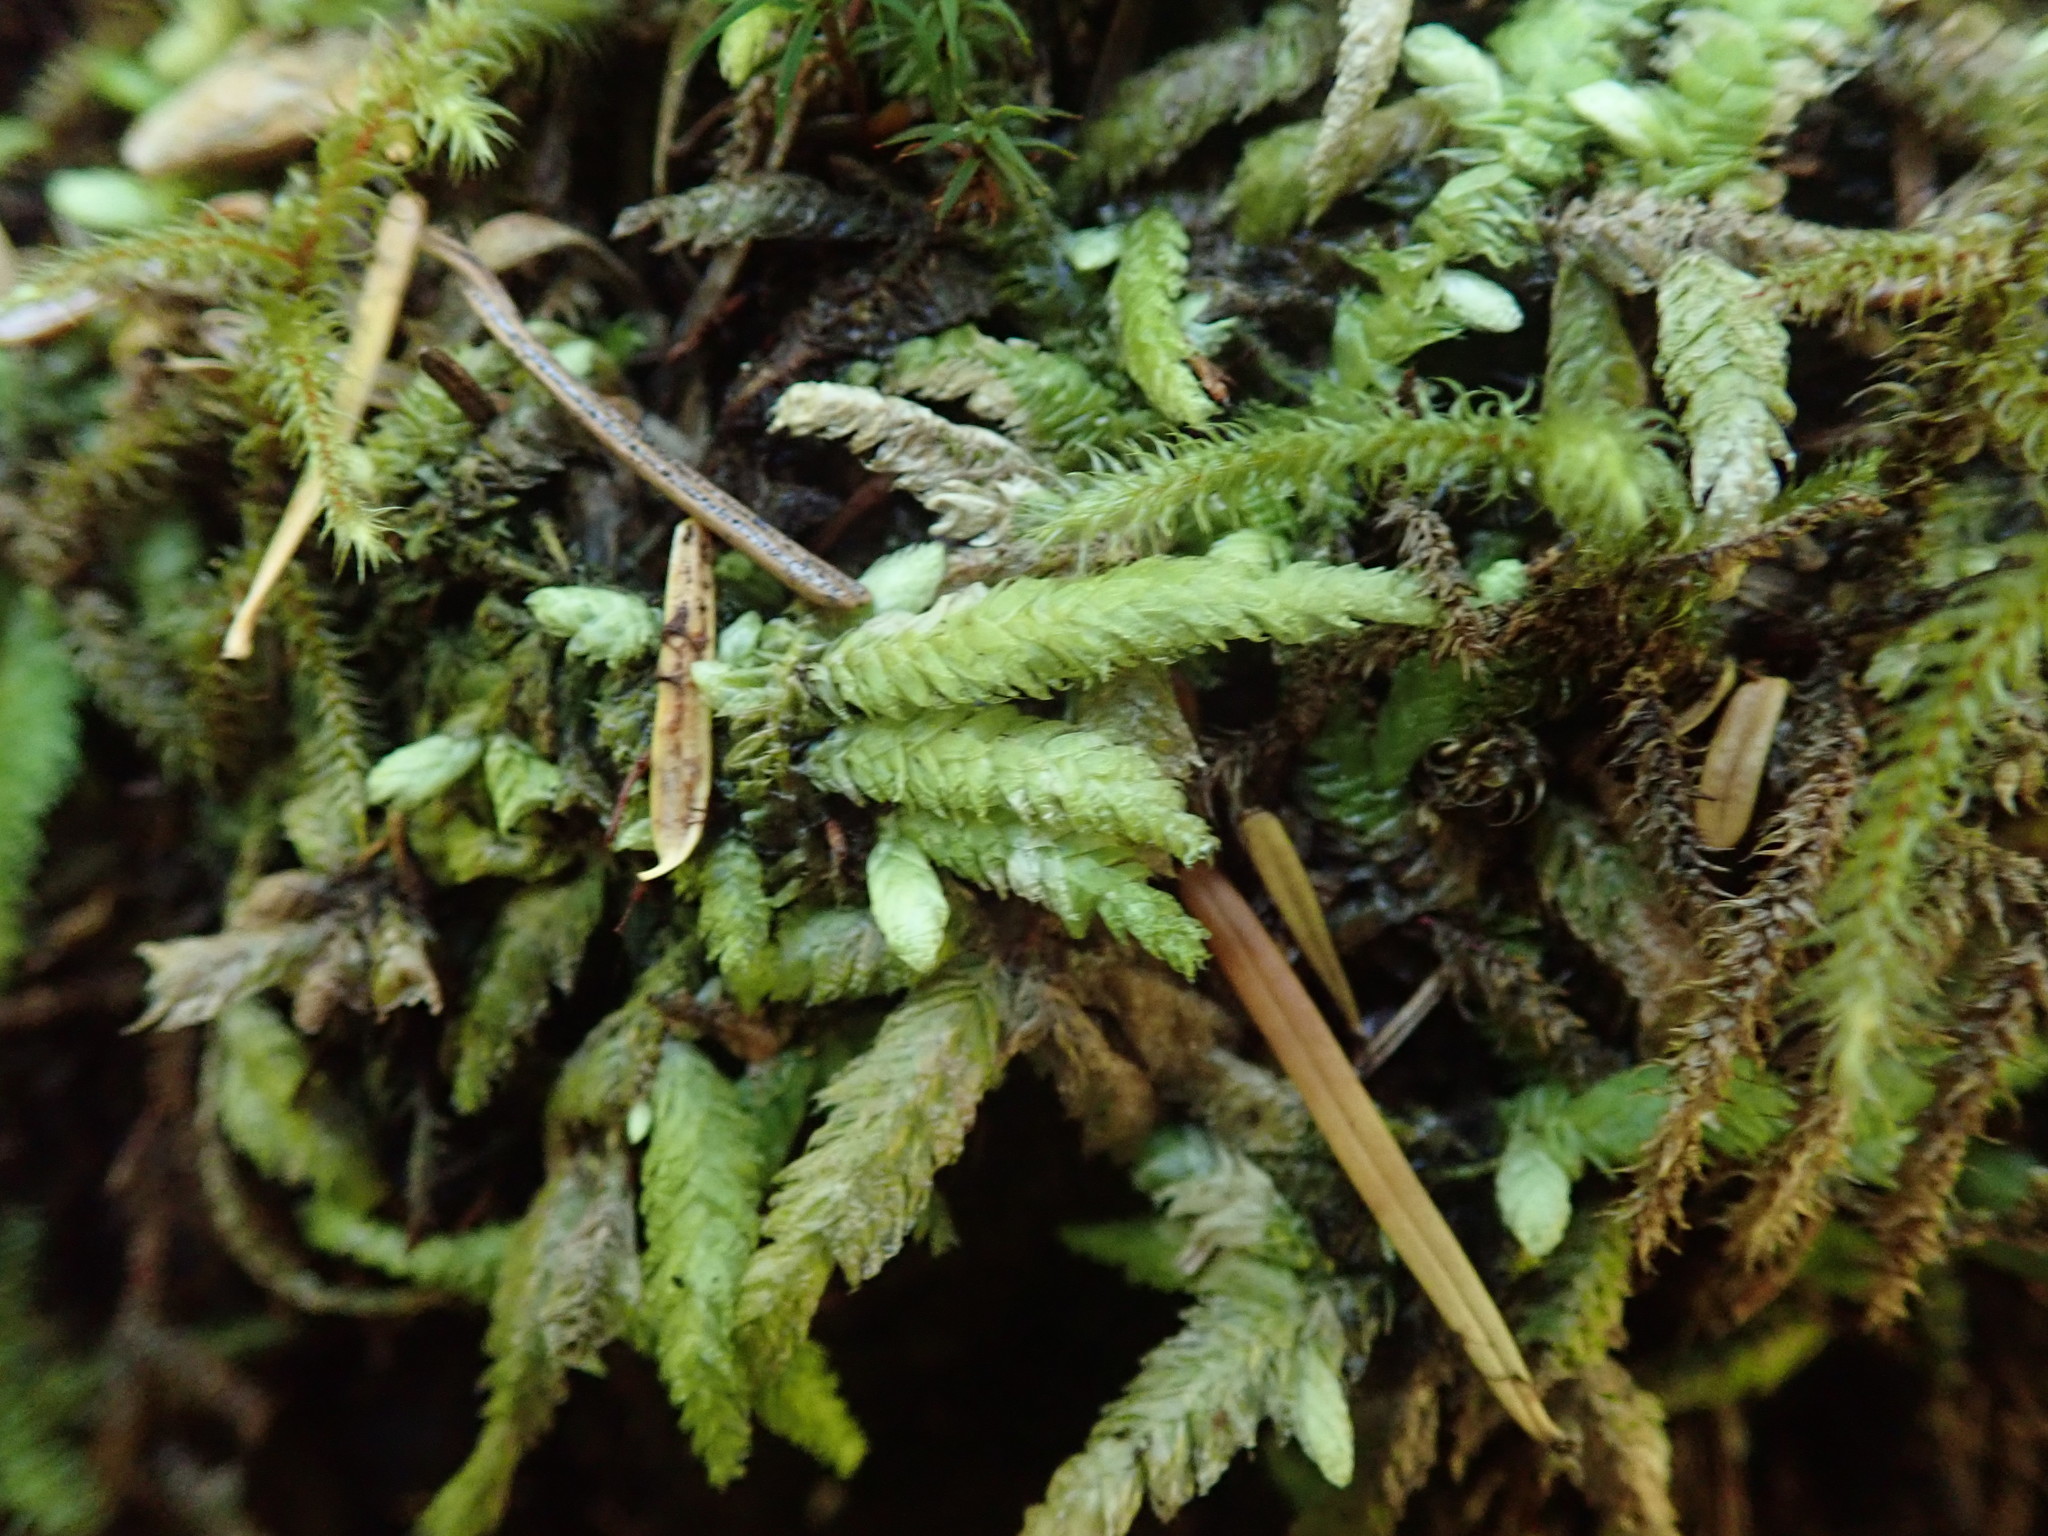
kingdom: Plantae
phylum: Bryophyta
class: Bryopsida
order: Hypnales
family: Plagiotheciaceae
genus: Plagiothecium
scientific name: Plagiothecium undulatum
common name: Waved silk-moss
